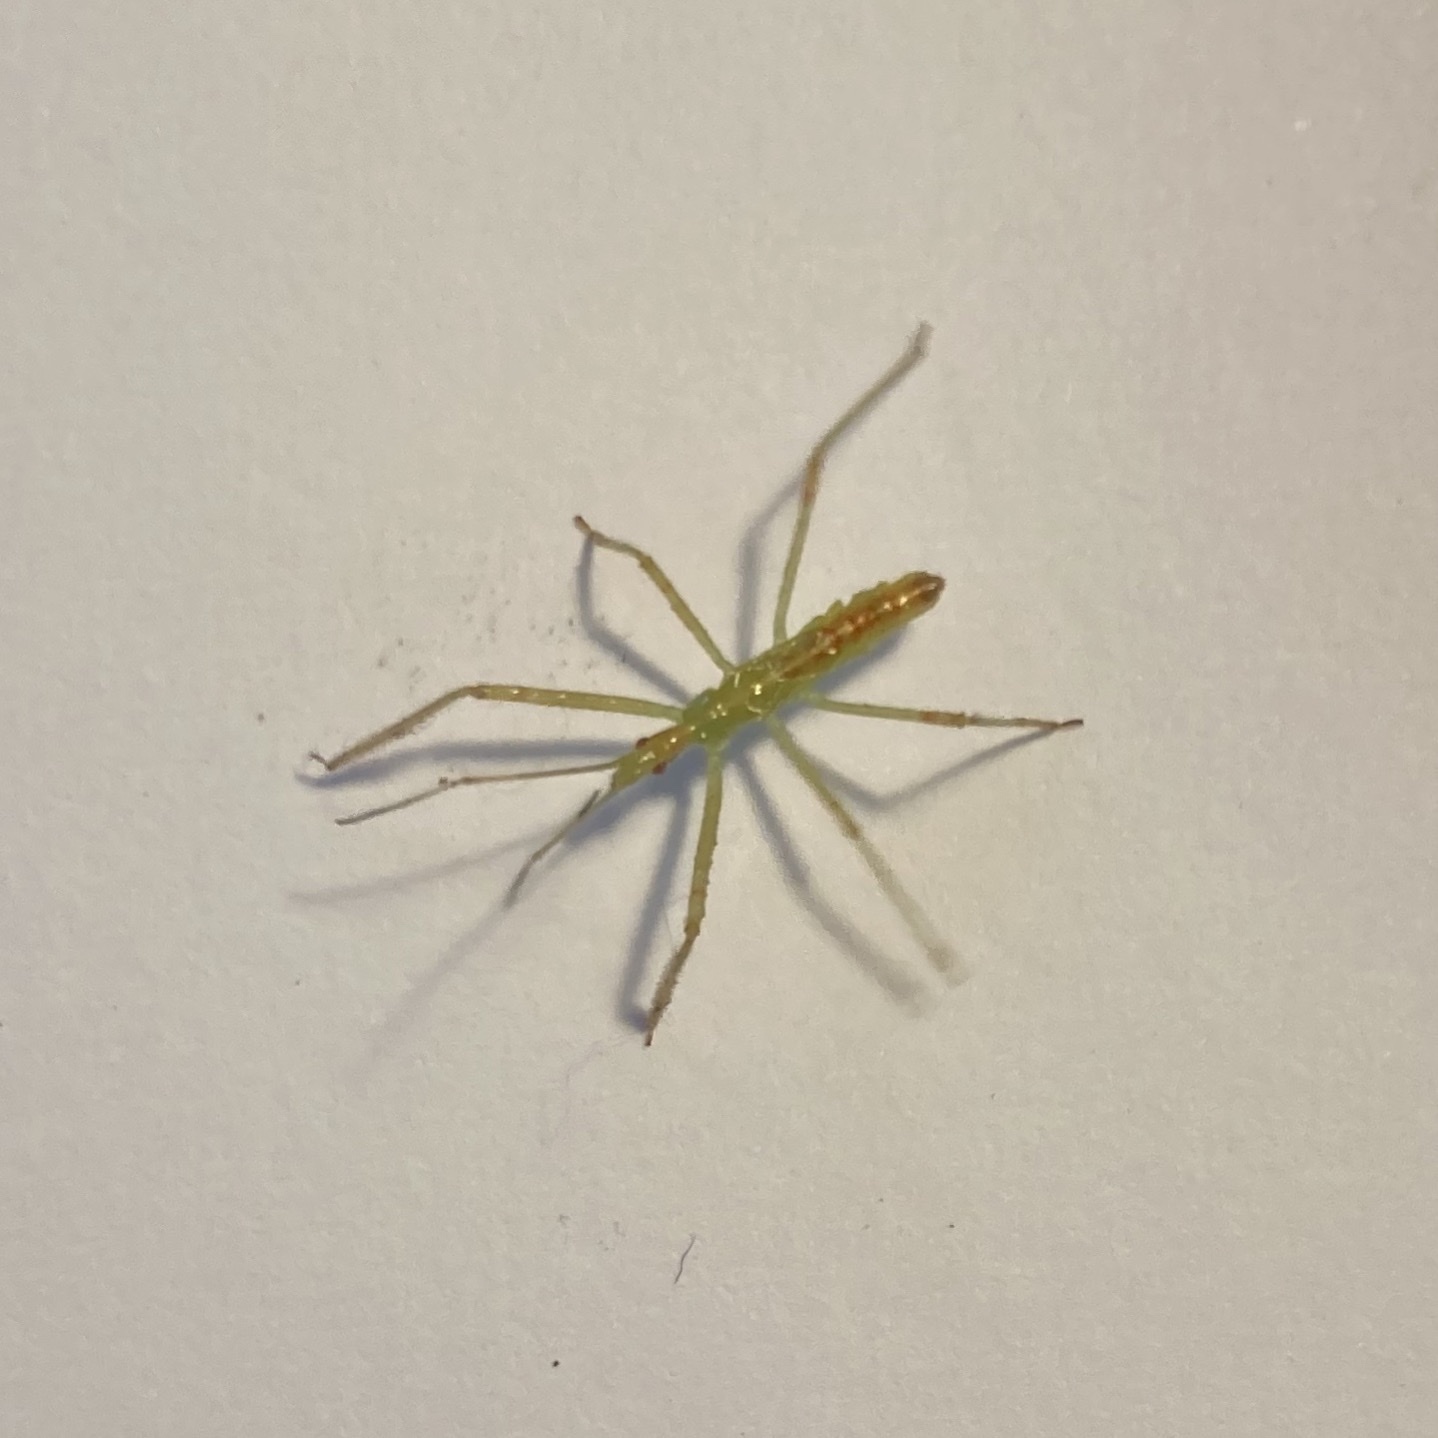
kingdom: Animalia
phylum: Arthropoda
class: Insecta
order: Hemiptera
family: Reduviidae
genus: Zelus
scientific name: Zelus luridus
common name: Pale green assassin bug
